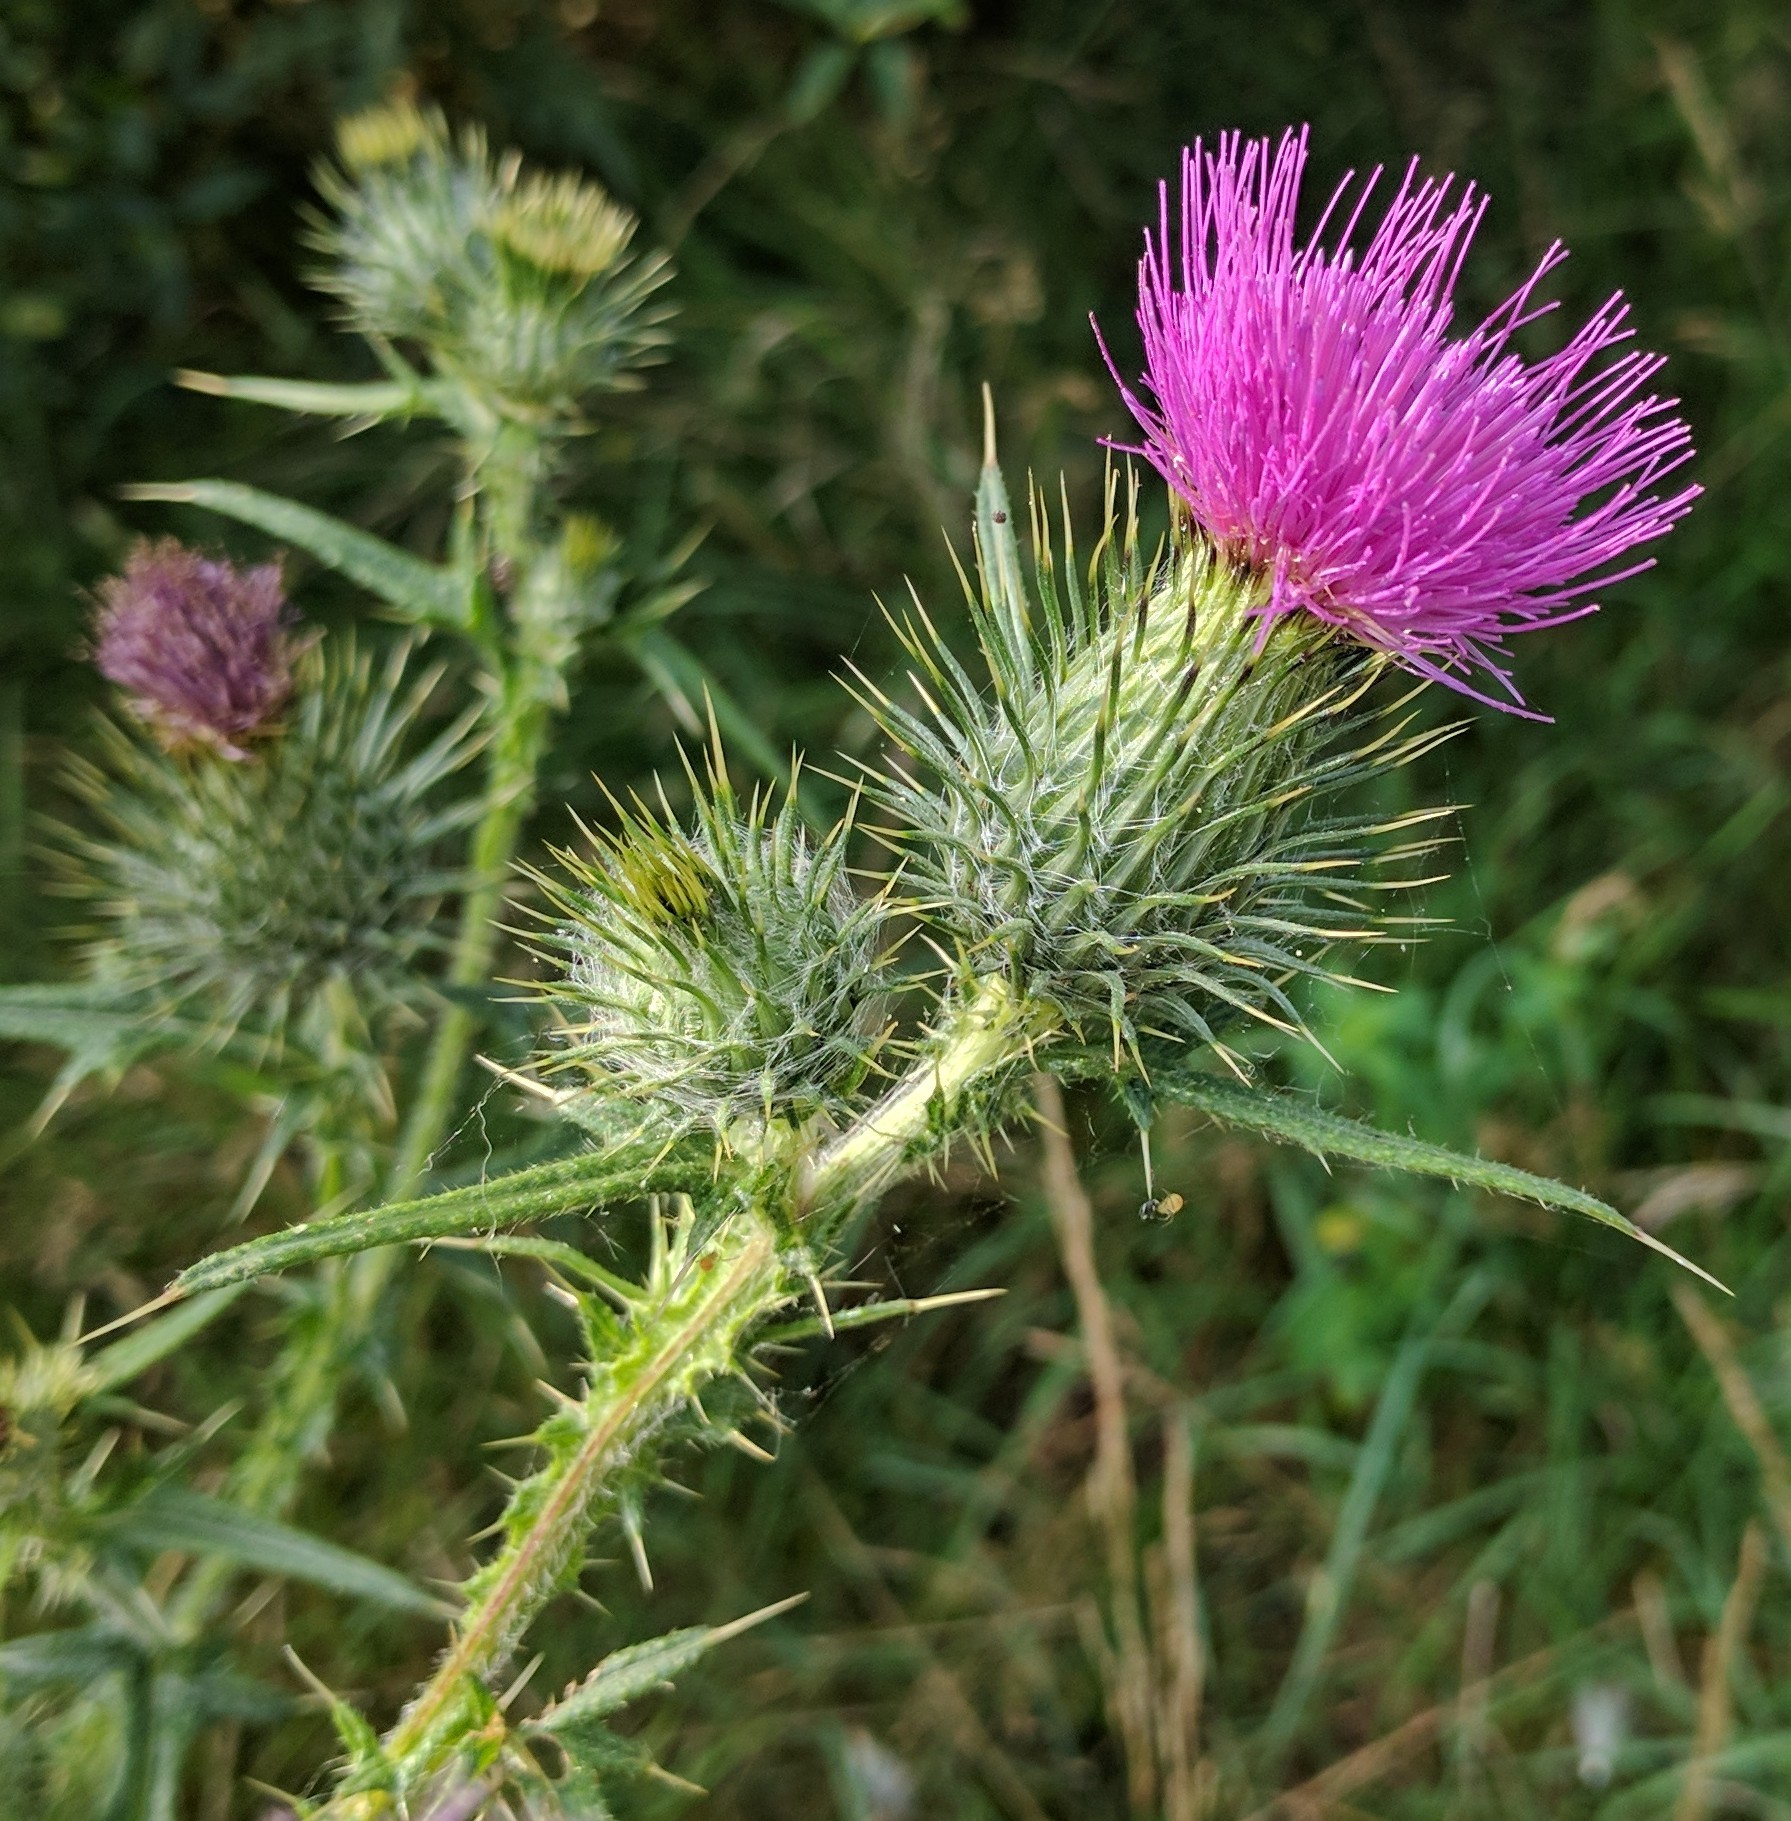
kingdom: Plantae
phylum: Tracheophyta
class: Magnoliopsida
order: Asterales
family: Asteraceae
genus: Cirsium
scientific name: Cirsium vulgare
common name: Bull thistle
